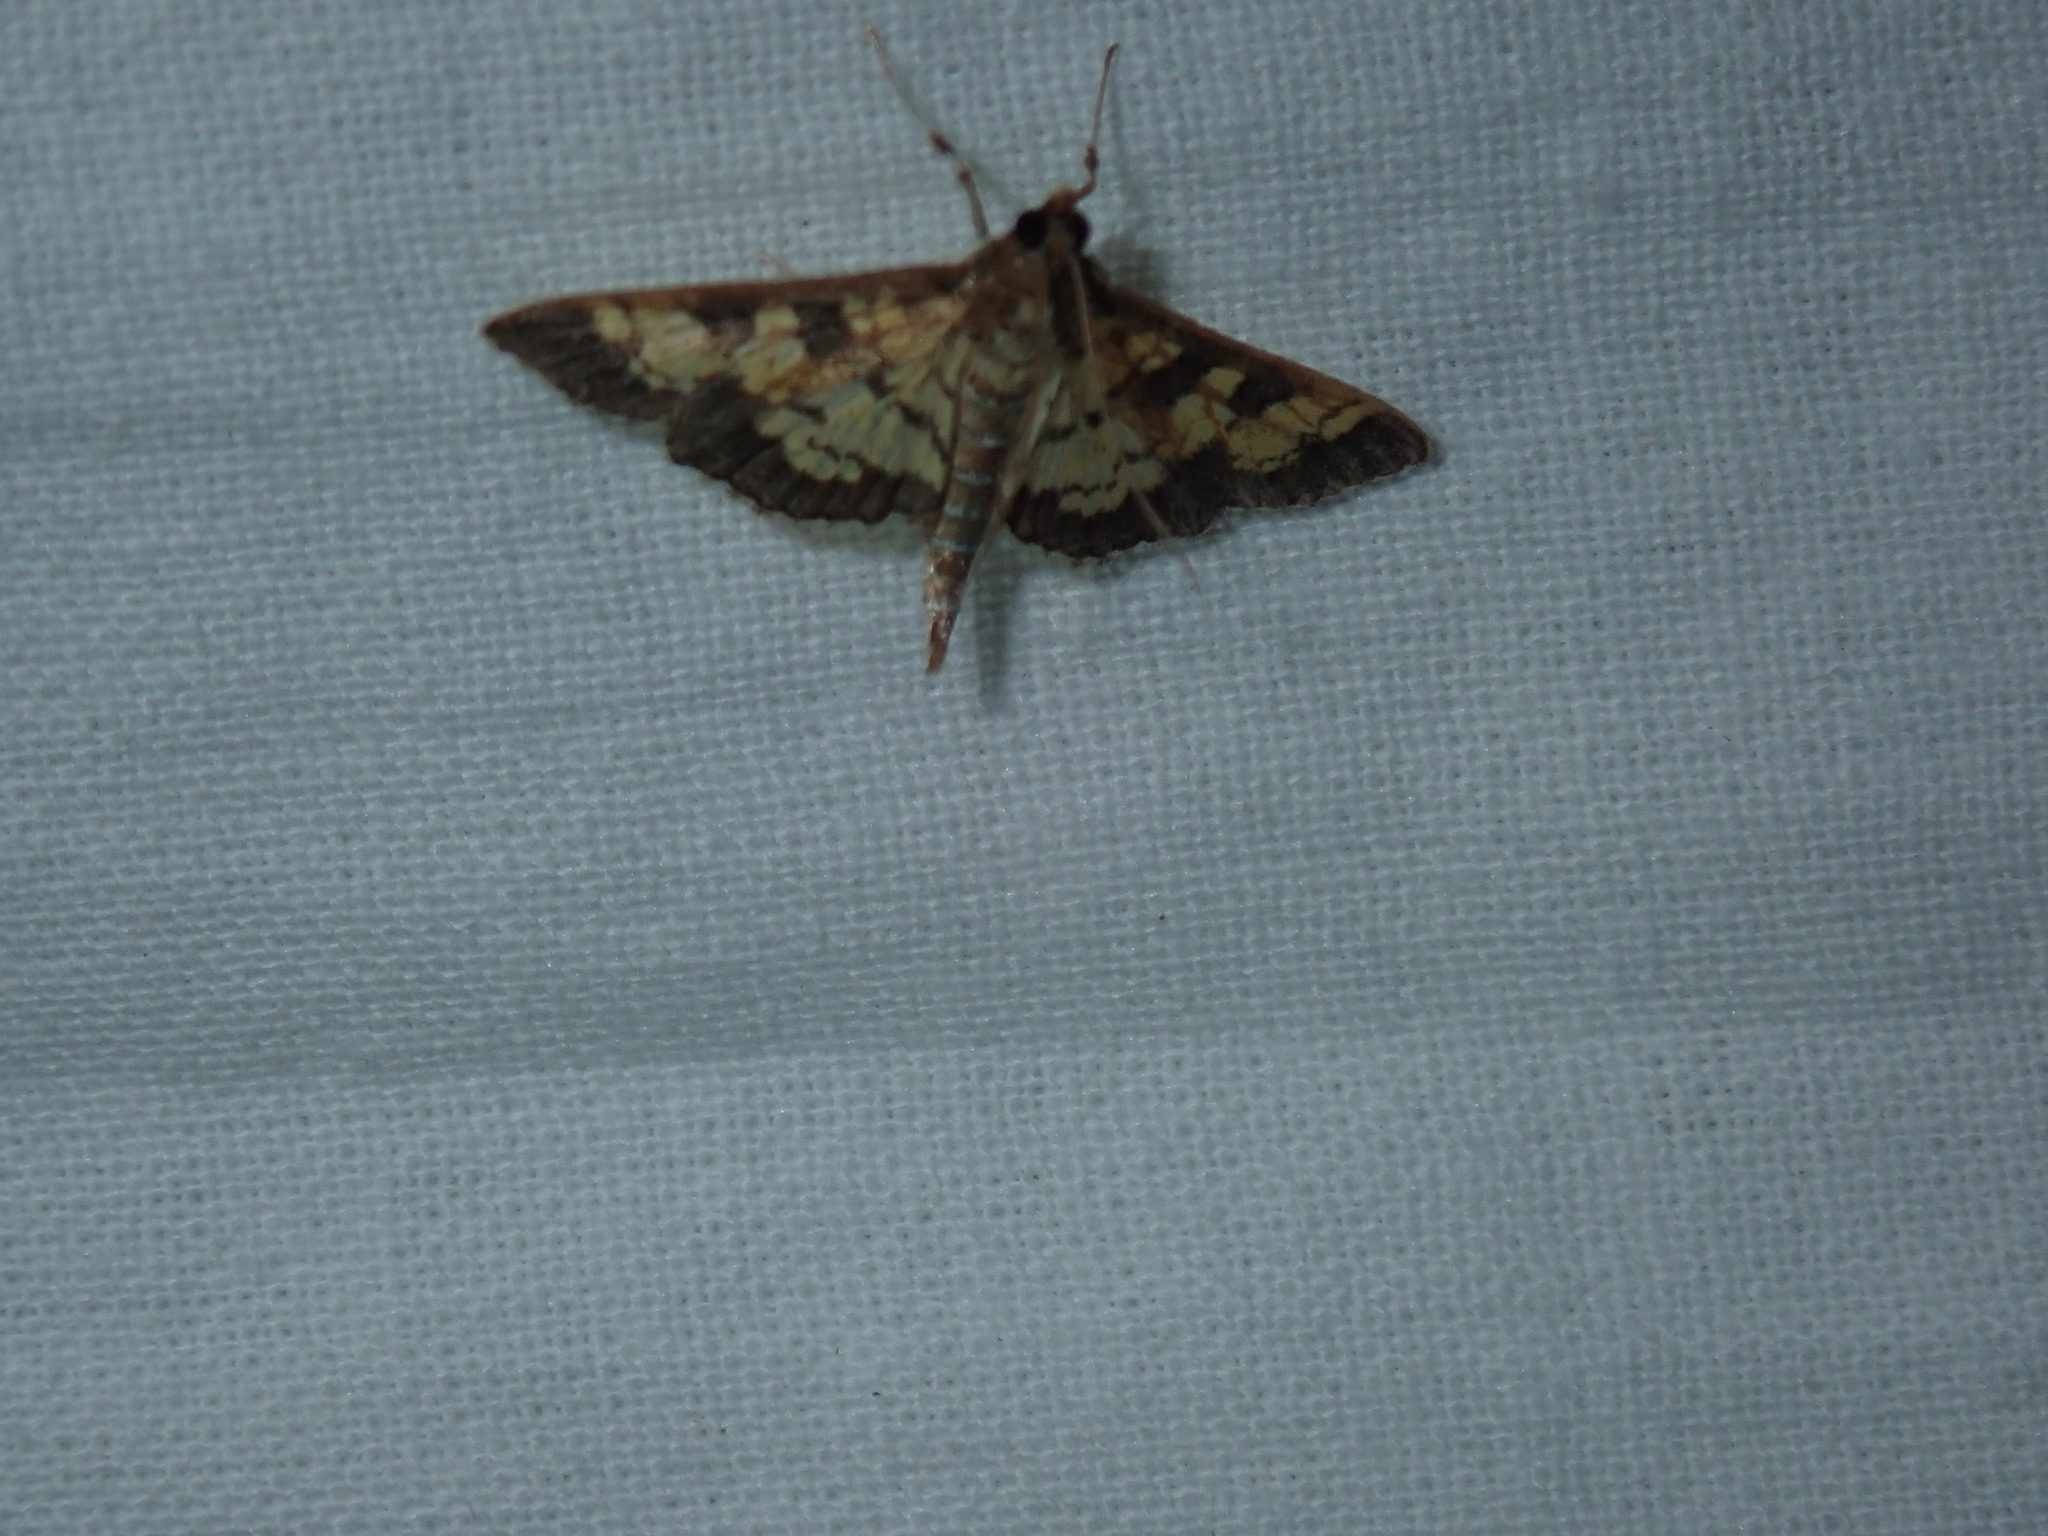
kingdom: Animalia
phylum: Arthropoda
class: Insecta
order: Lepidoptera
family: Crambidae
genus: Epipagis
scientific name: Epipagis adipaloides
